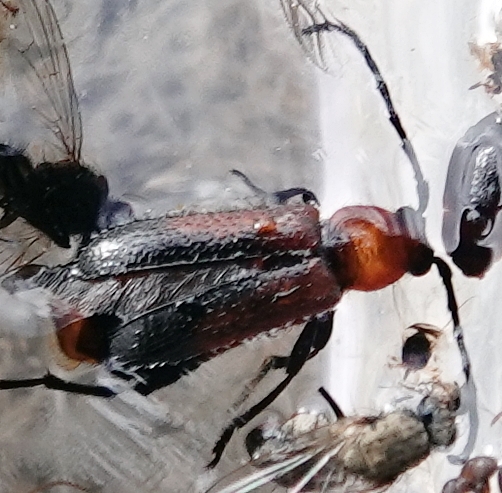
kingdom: Animalia
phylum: Arthropoda
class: Insecta
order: Coleoptera
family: Cerambycidae
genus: Batyle
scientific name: Batyle suturalis
